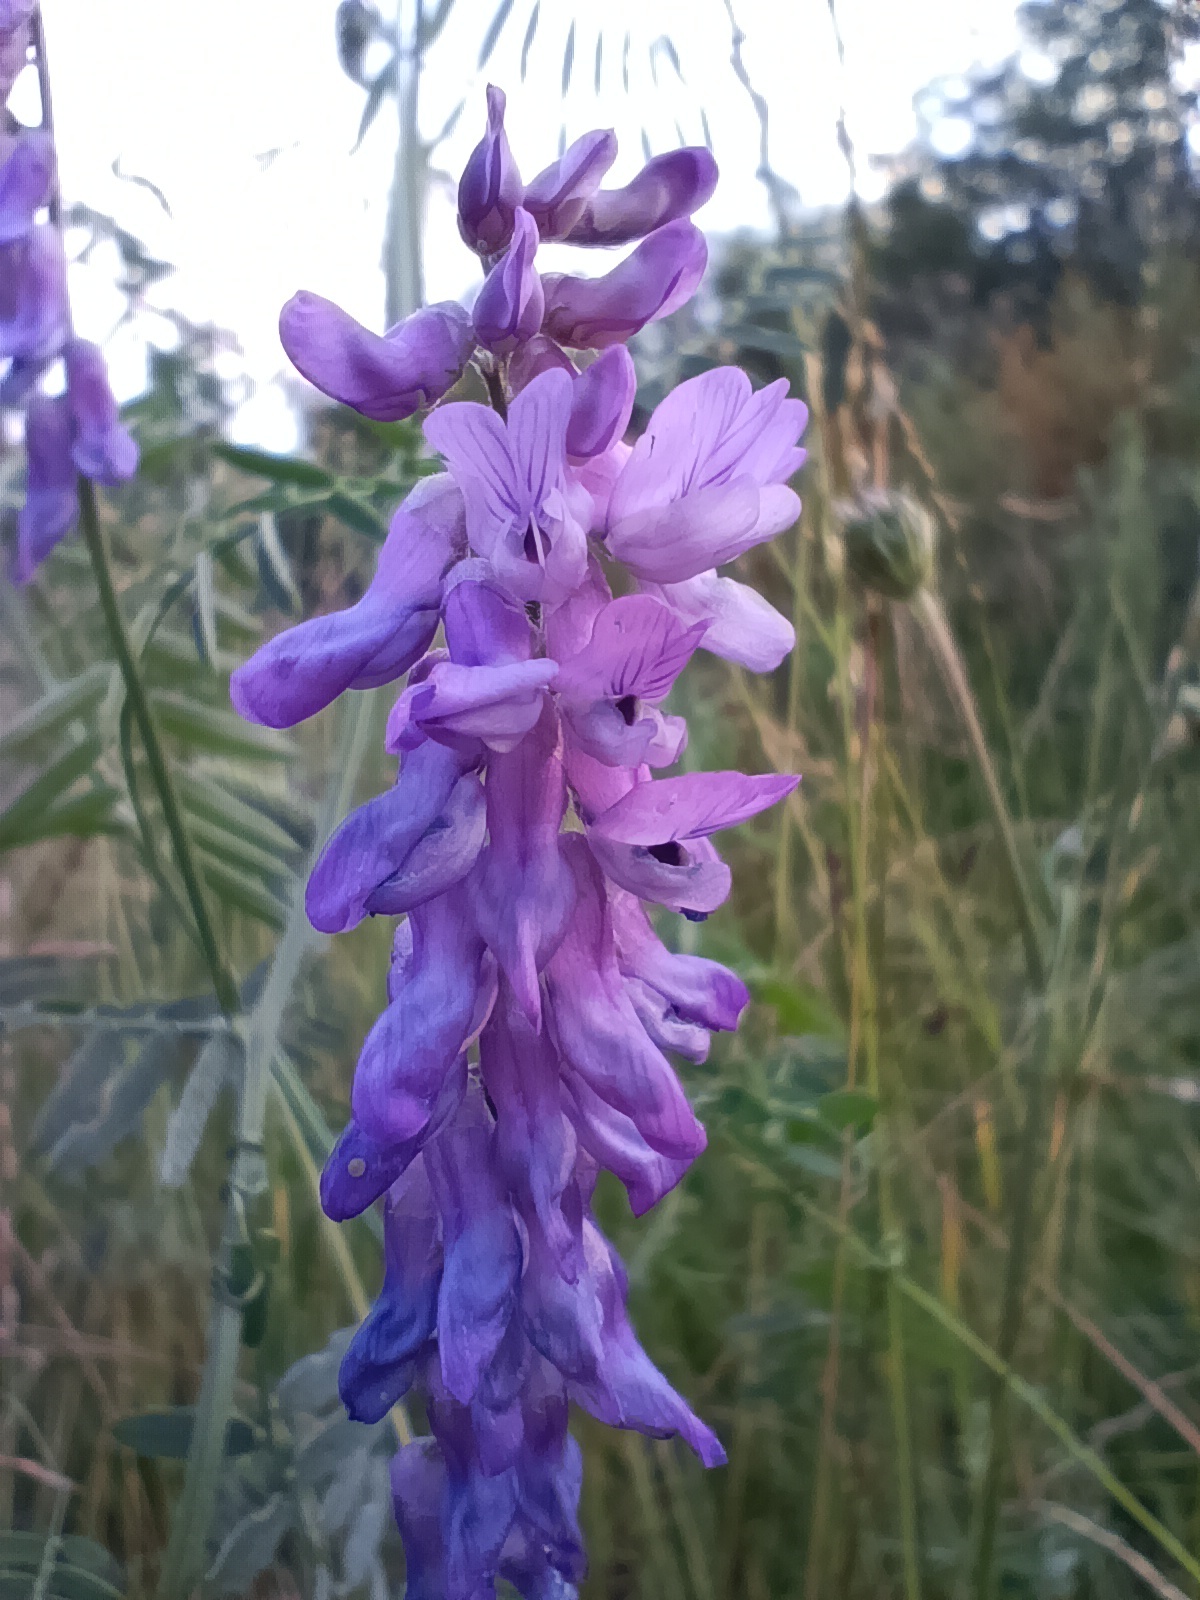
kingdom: Plantae
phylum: Tracheophyta
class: Magnoliopsida
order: Fabales
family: Fabaceae
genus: Vicia
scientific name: Vicia cracca
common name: Bird vetch
